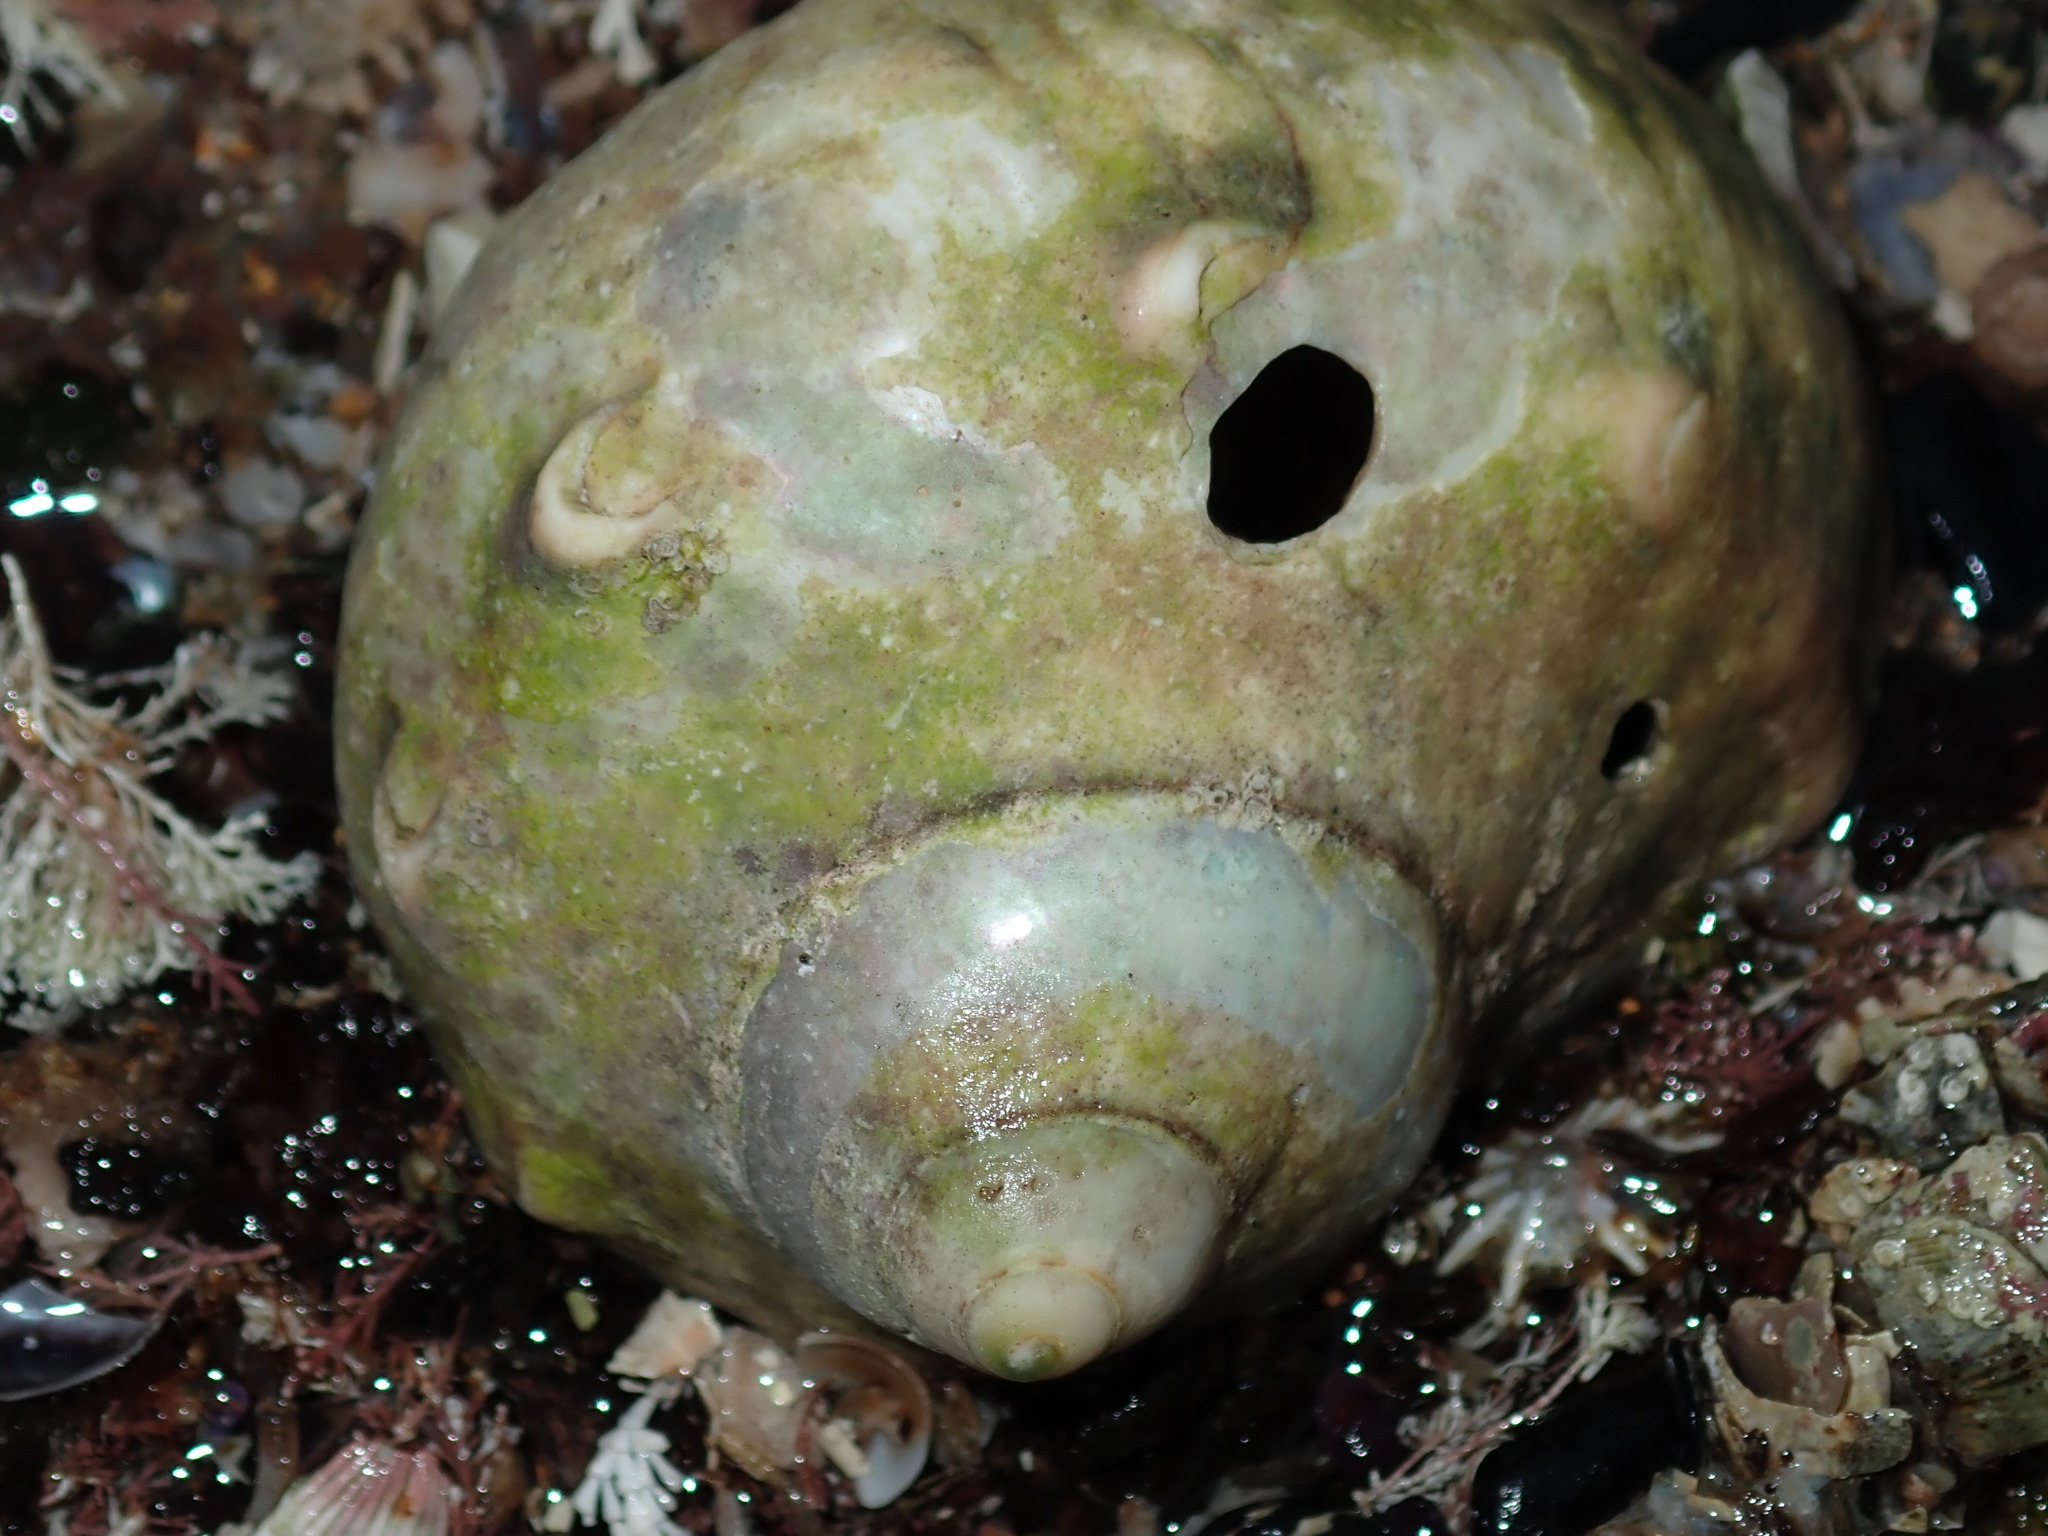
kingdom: Animalia
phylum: Mollusca
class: Gastropoda
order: Trochida
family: Turbinidae
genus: Turbo
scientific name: Turbo militaris
